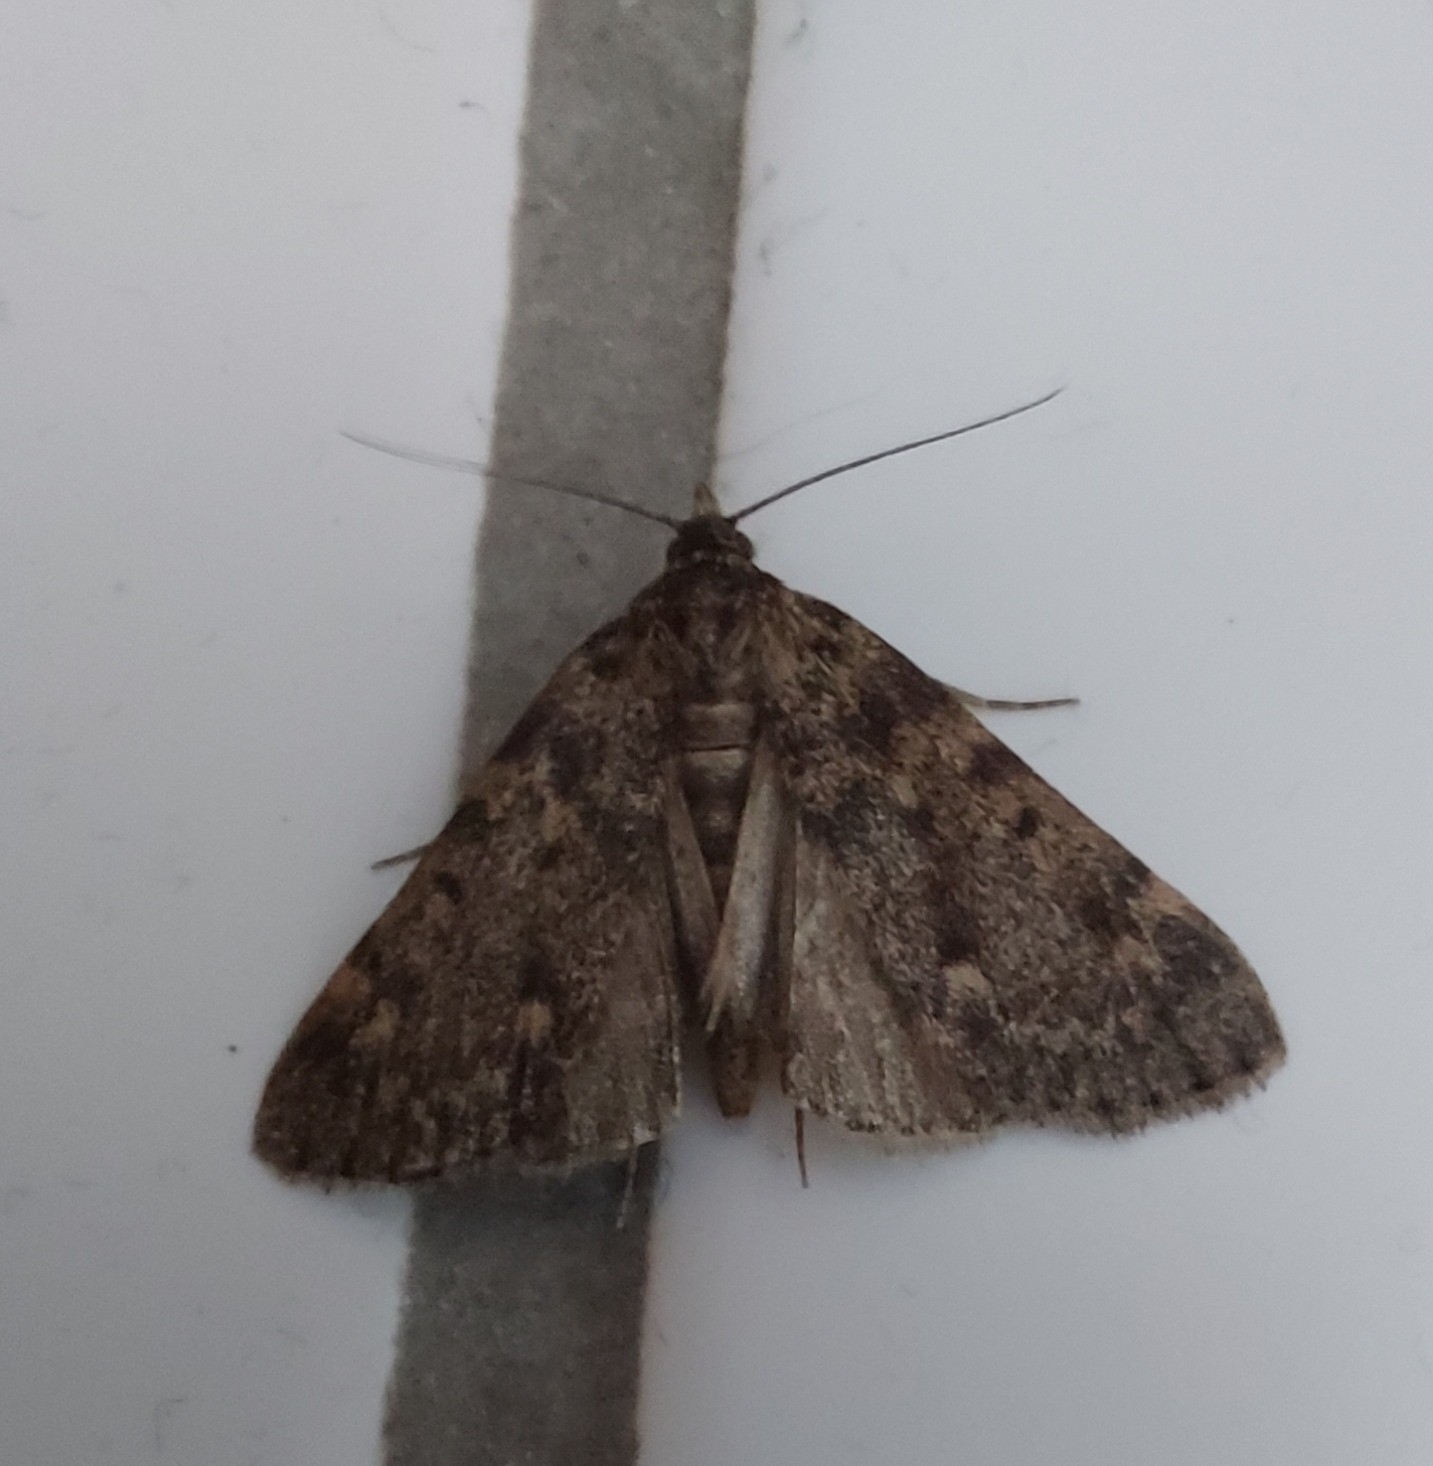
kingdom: Animalia
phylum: Arthropoda
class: Insecta
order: Lepidoptera
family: Pyralidae
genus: Aglossa
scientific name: Aglossa pinguinalis
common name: Large tabby
